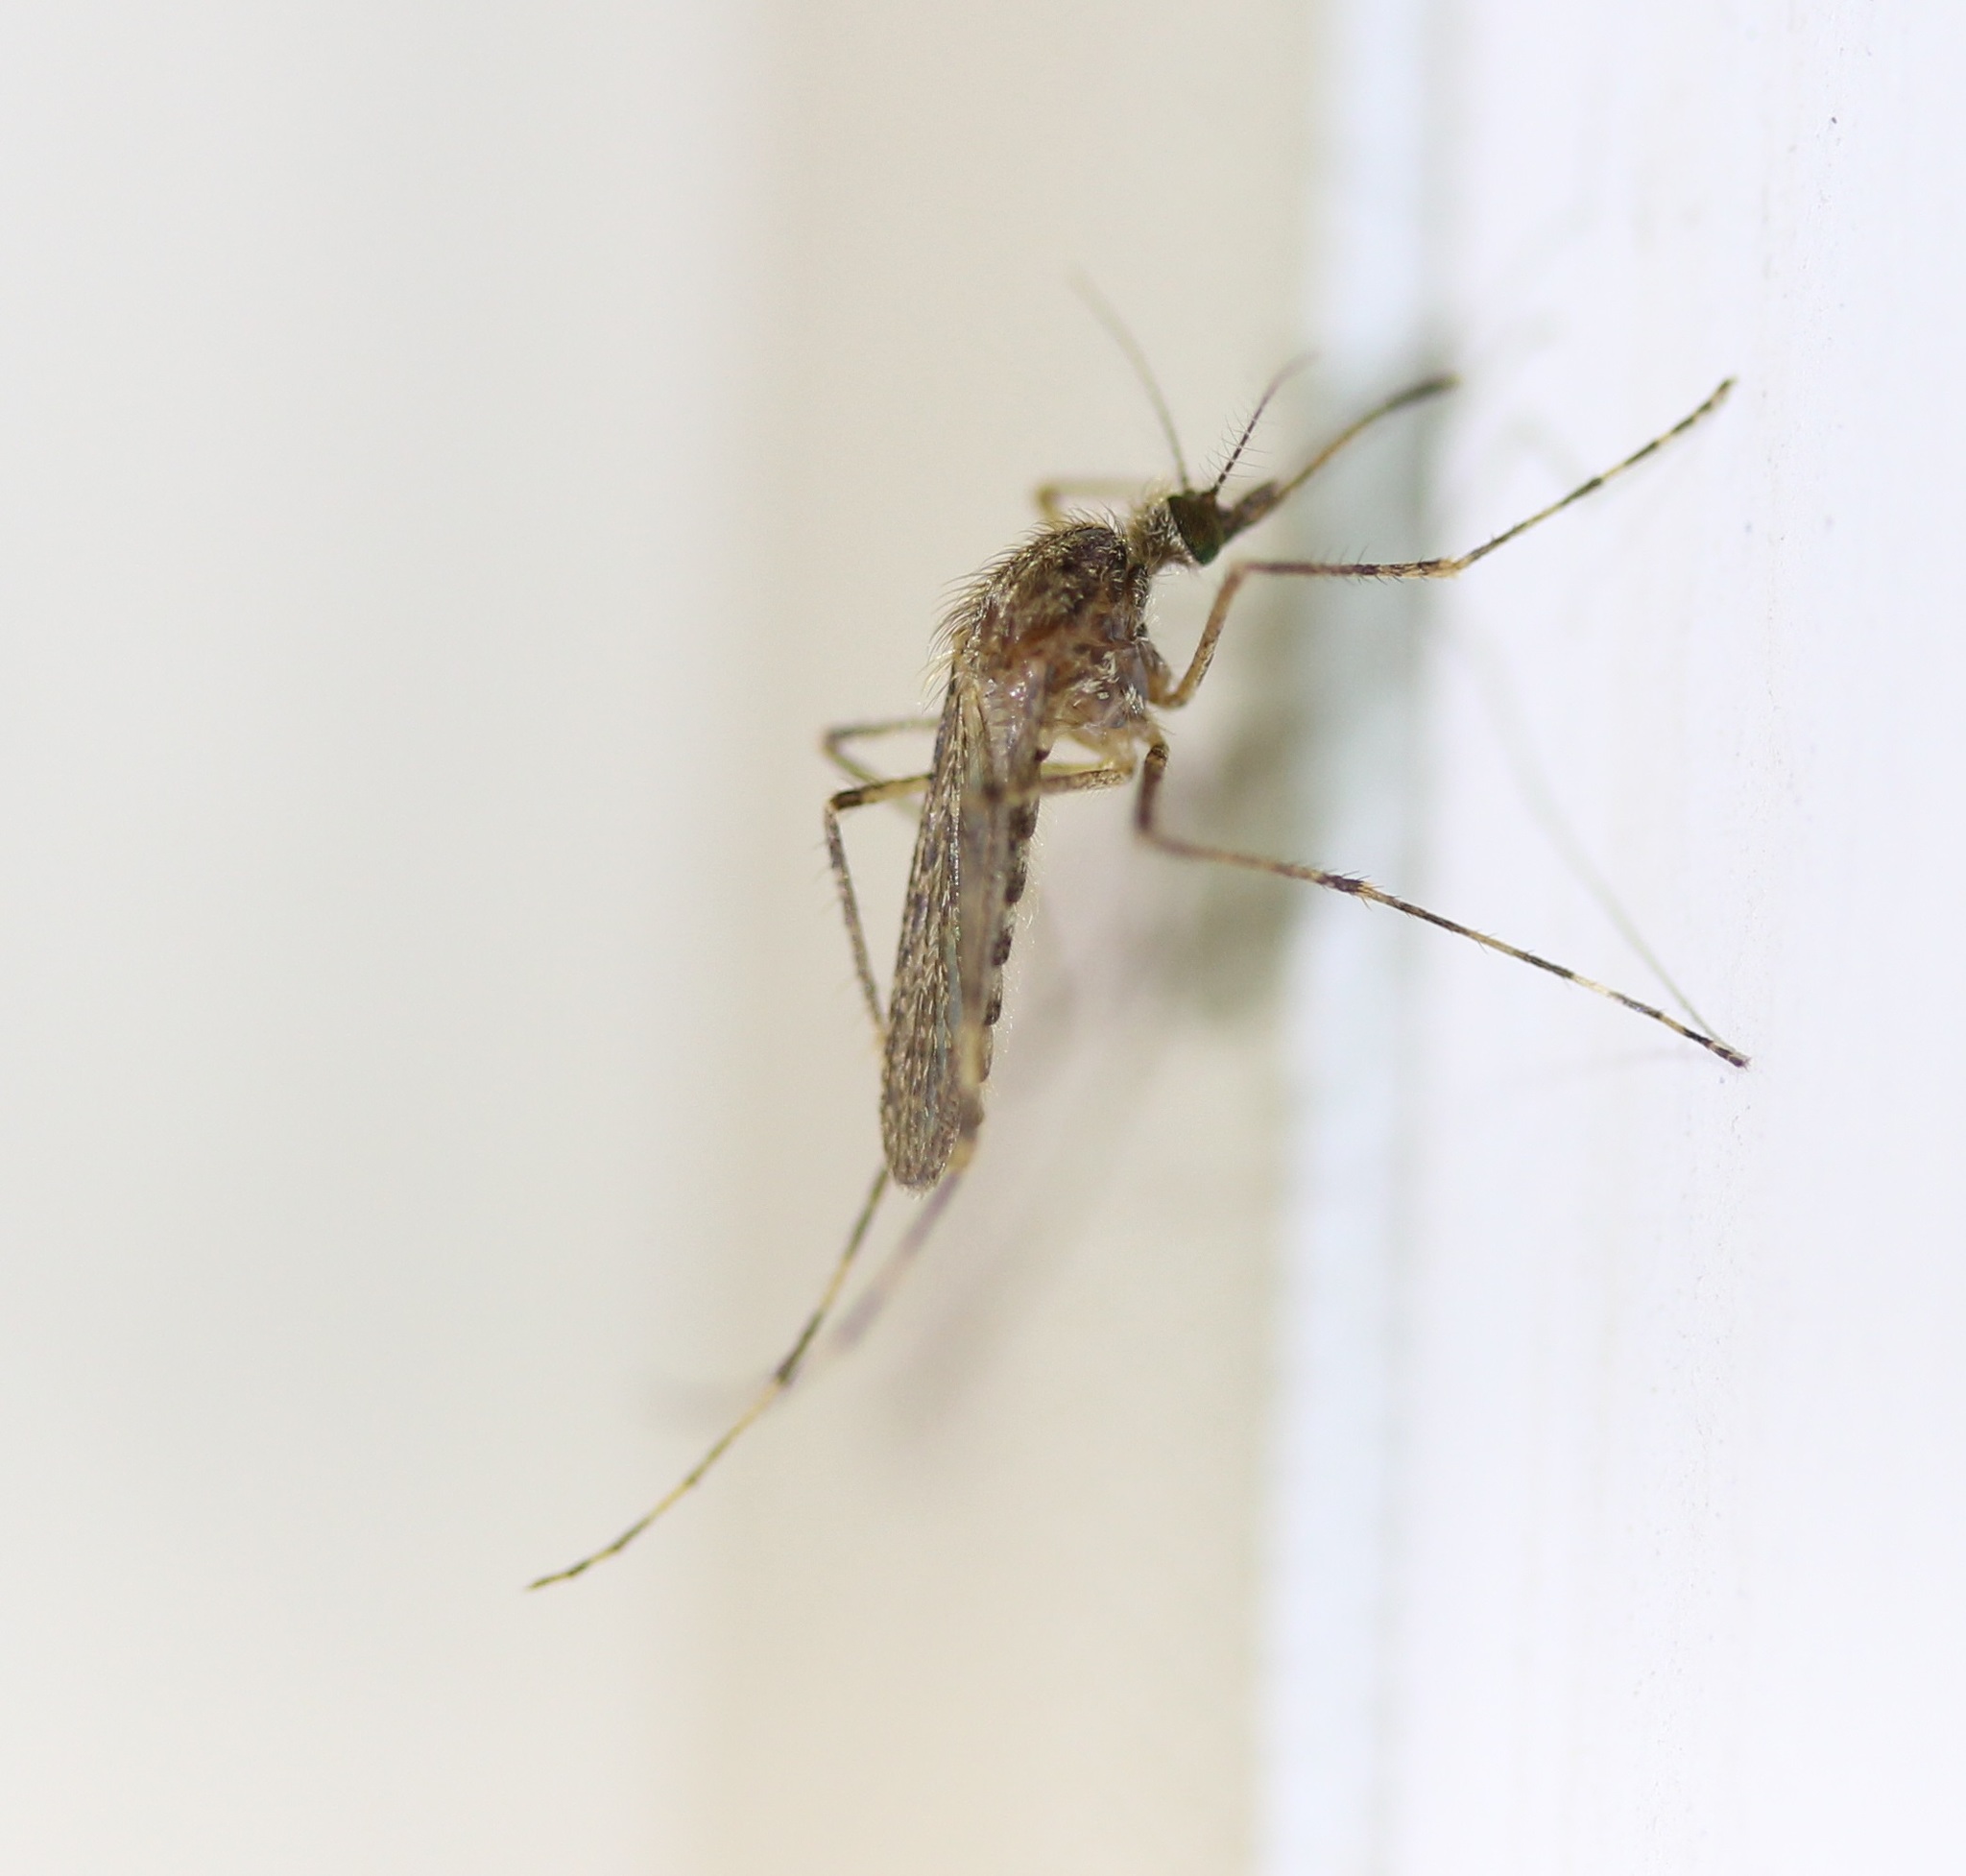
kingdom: Animalia
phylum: Arthropoda
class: Insecta
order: Diptera
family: Culicidae
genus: Coquillettidia
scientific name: Coquillettidia perturbans
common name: Cattail mosquito
